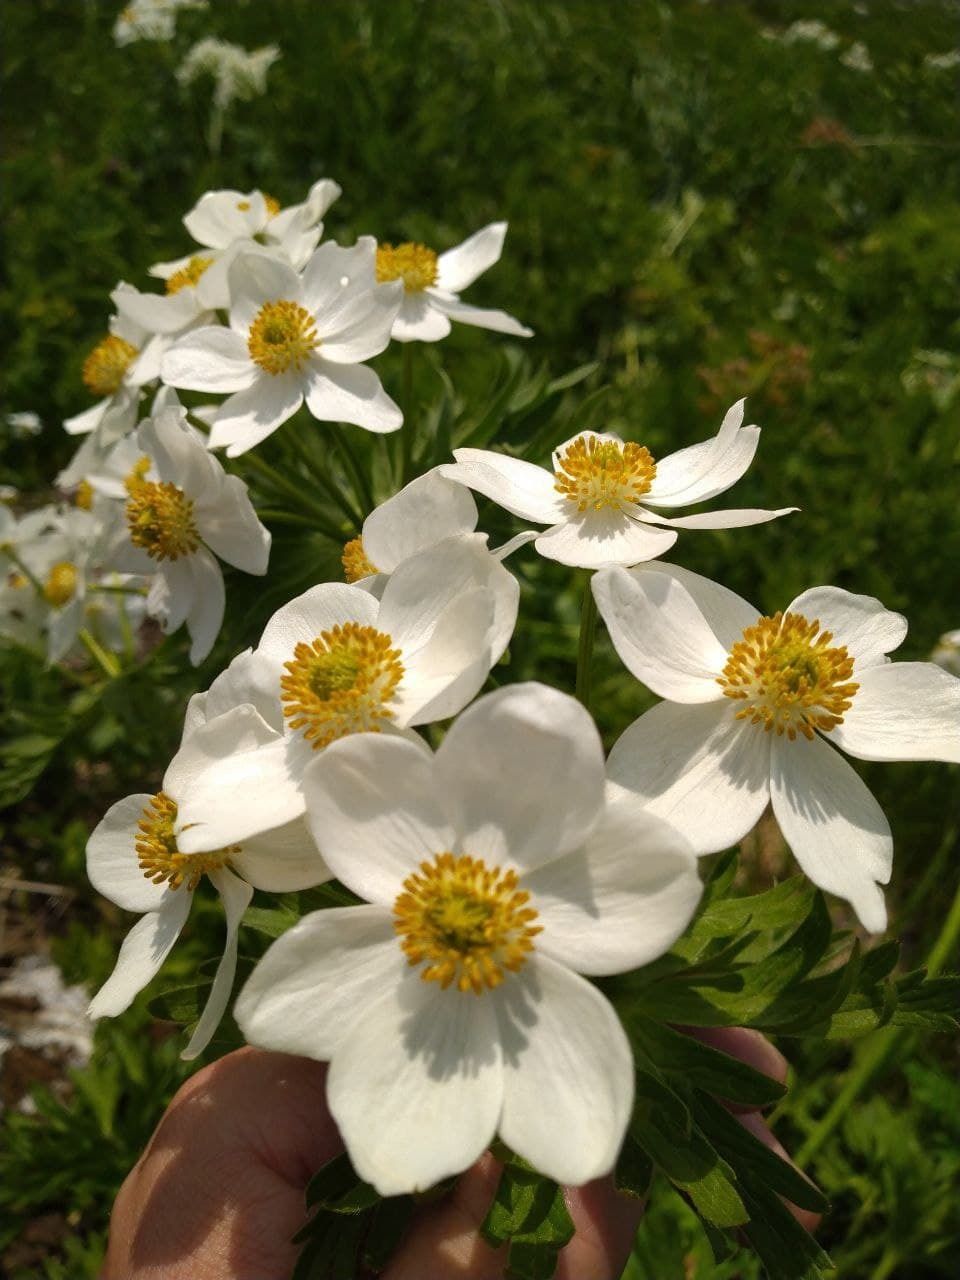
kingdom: Plantae
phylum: Tracheophyta
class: Magnoliopsida
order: Ranunculales
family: Ranunculaceae
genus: Anemonastrum
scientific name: Anemonastrum narcissiflorum
